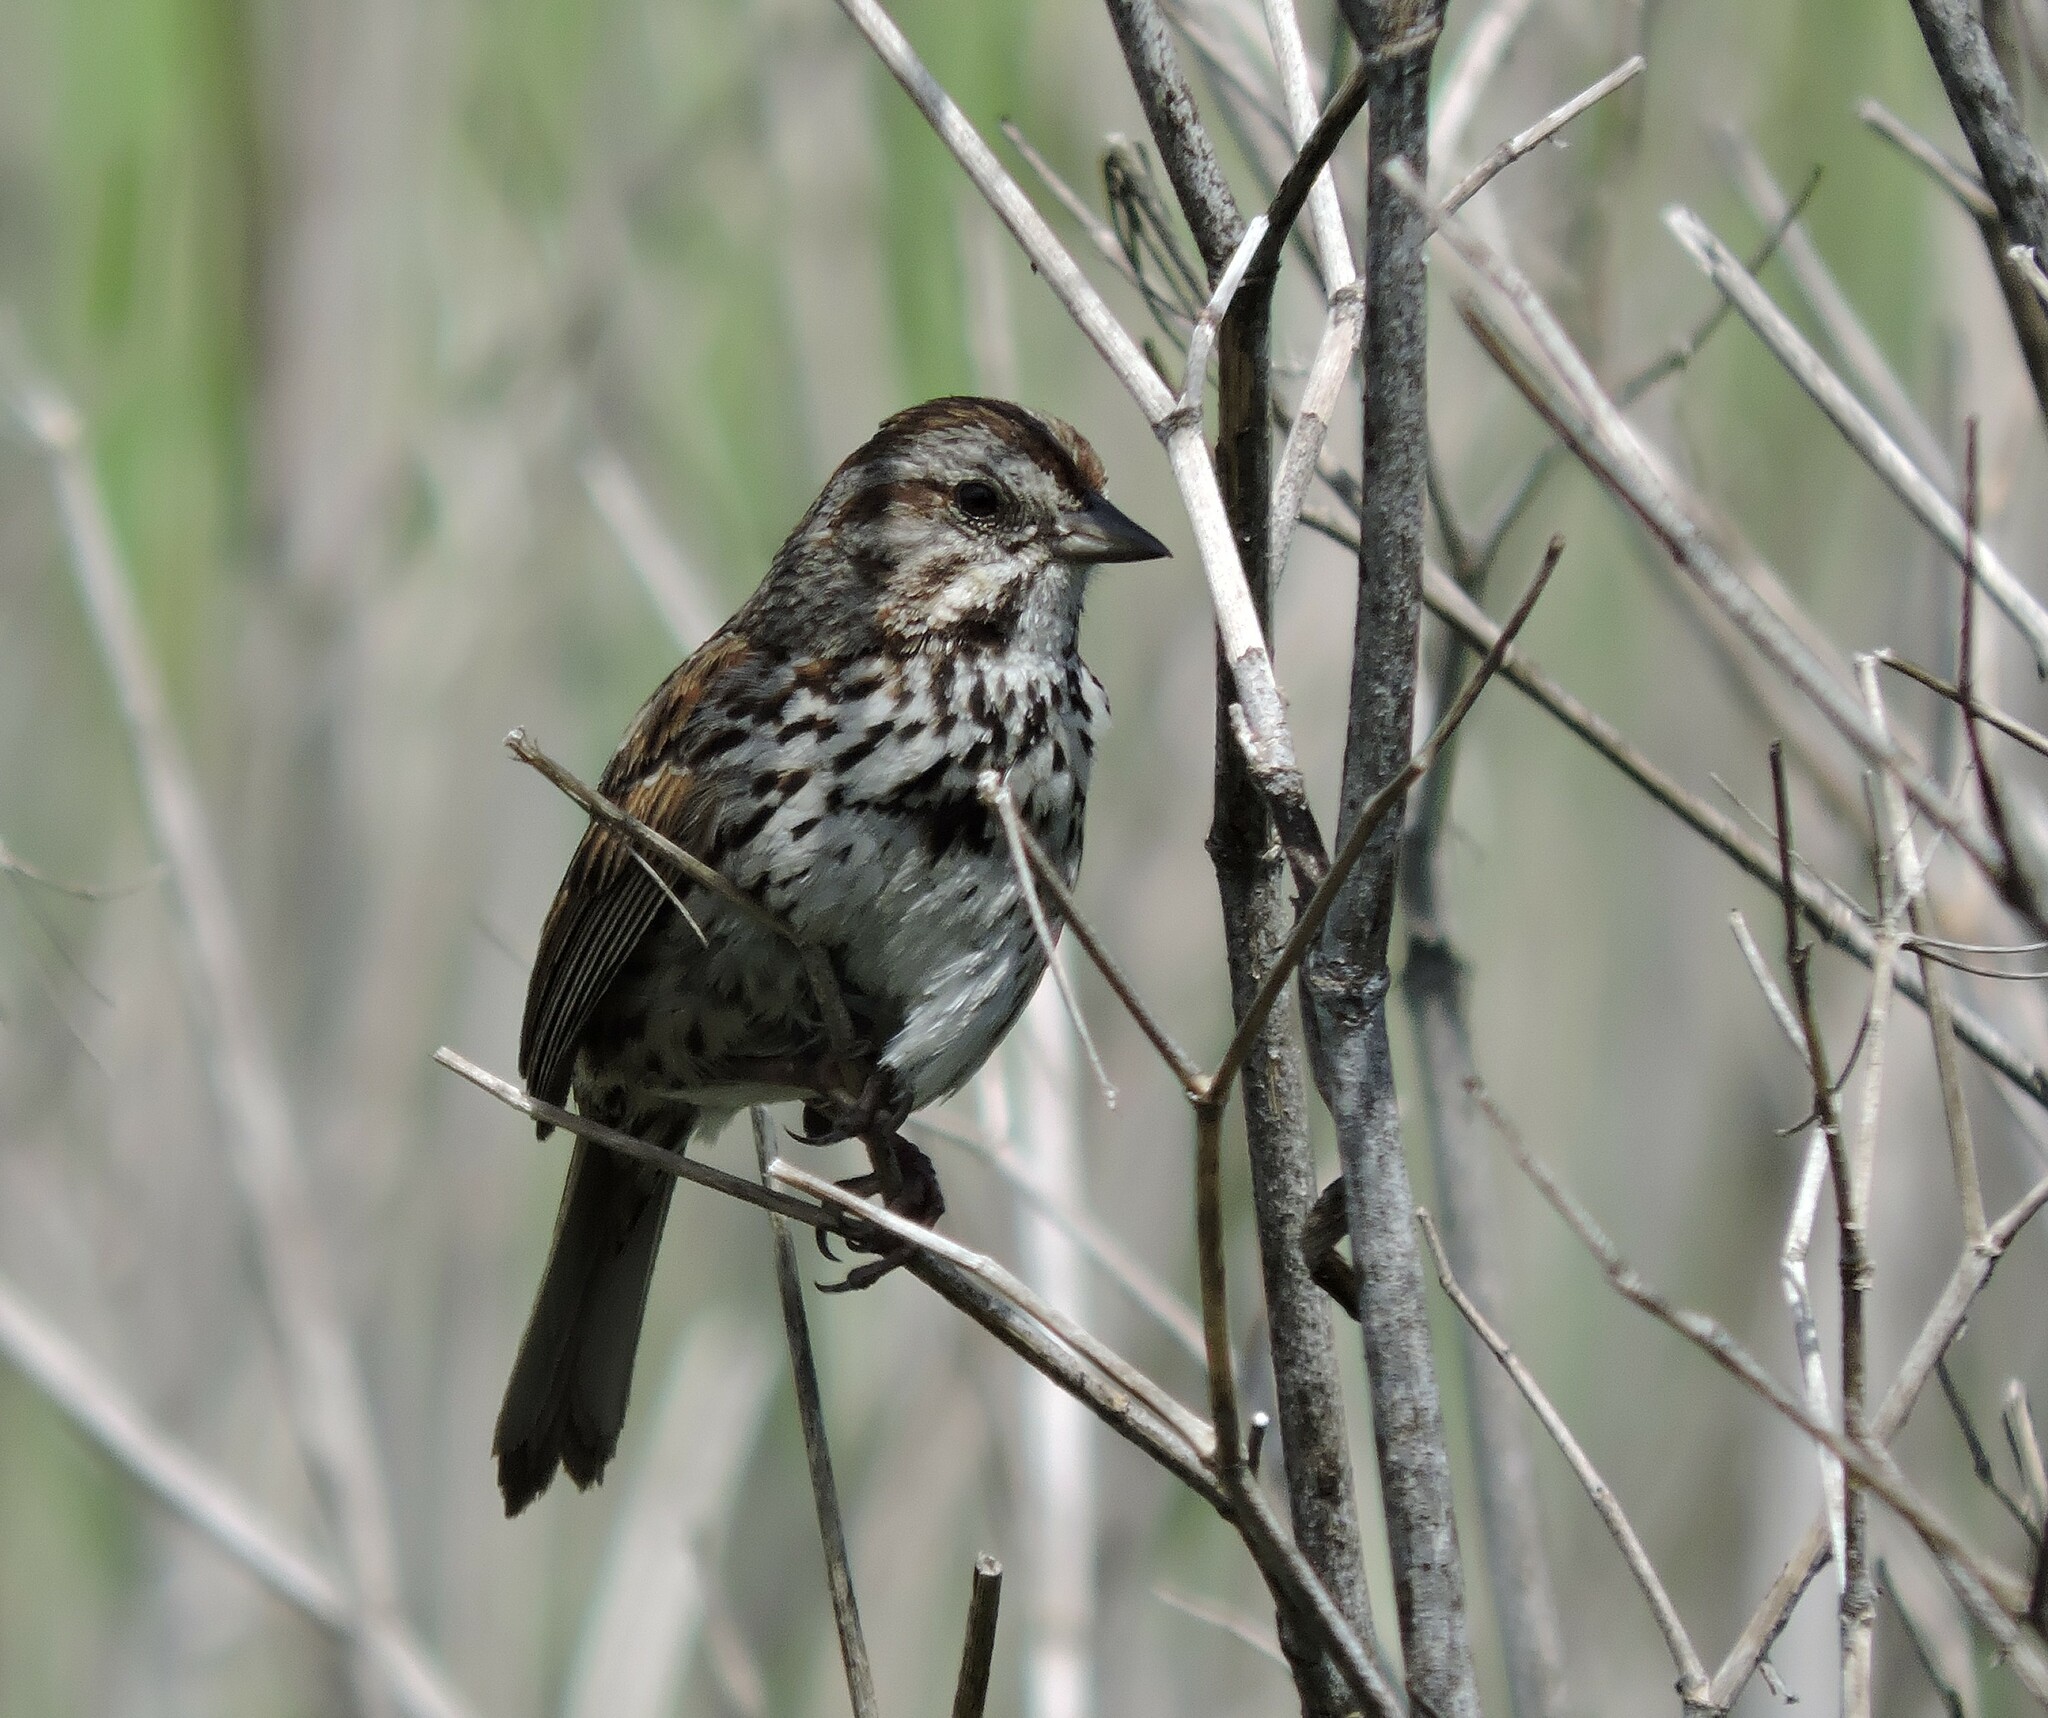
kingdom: Animalia
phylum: Chordata
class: Aves
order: Passeriformes
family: Passerellidae
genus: Melospiza
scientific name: Melospiza melodia
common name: Song sparrow
